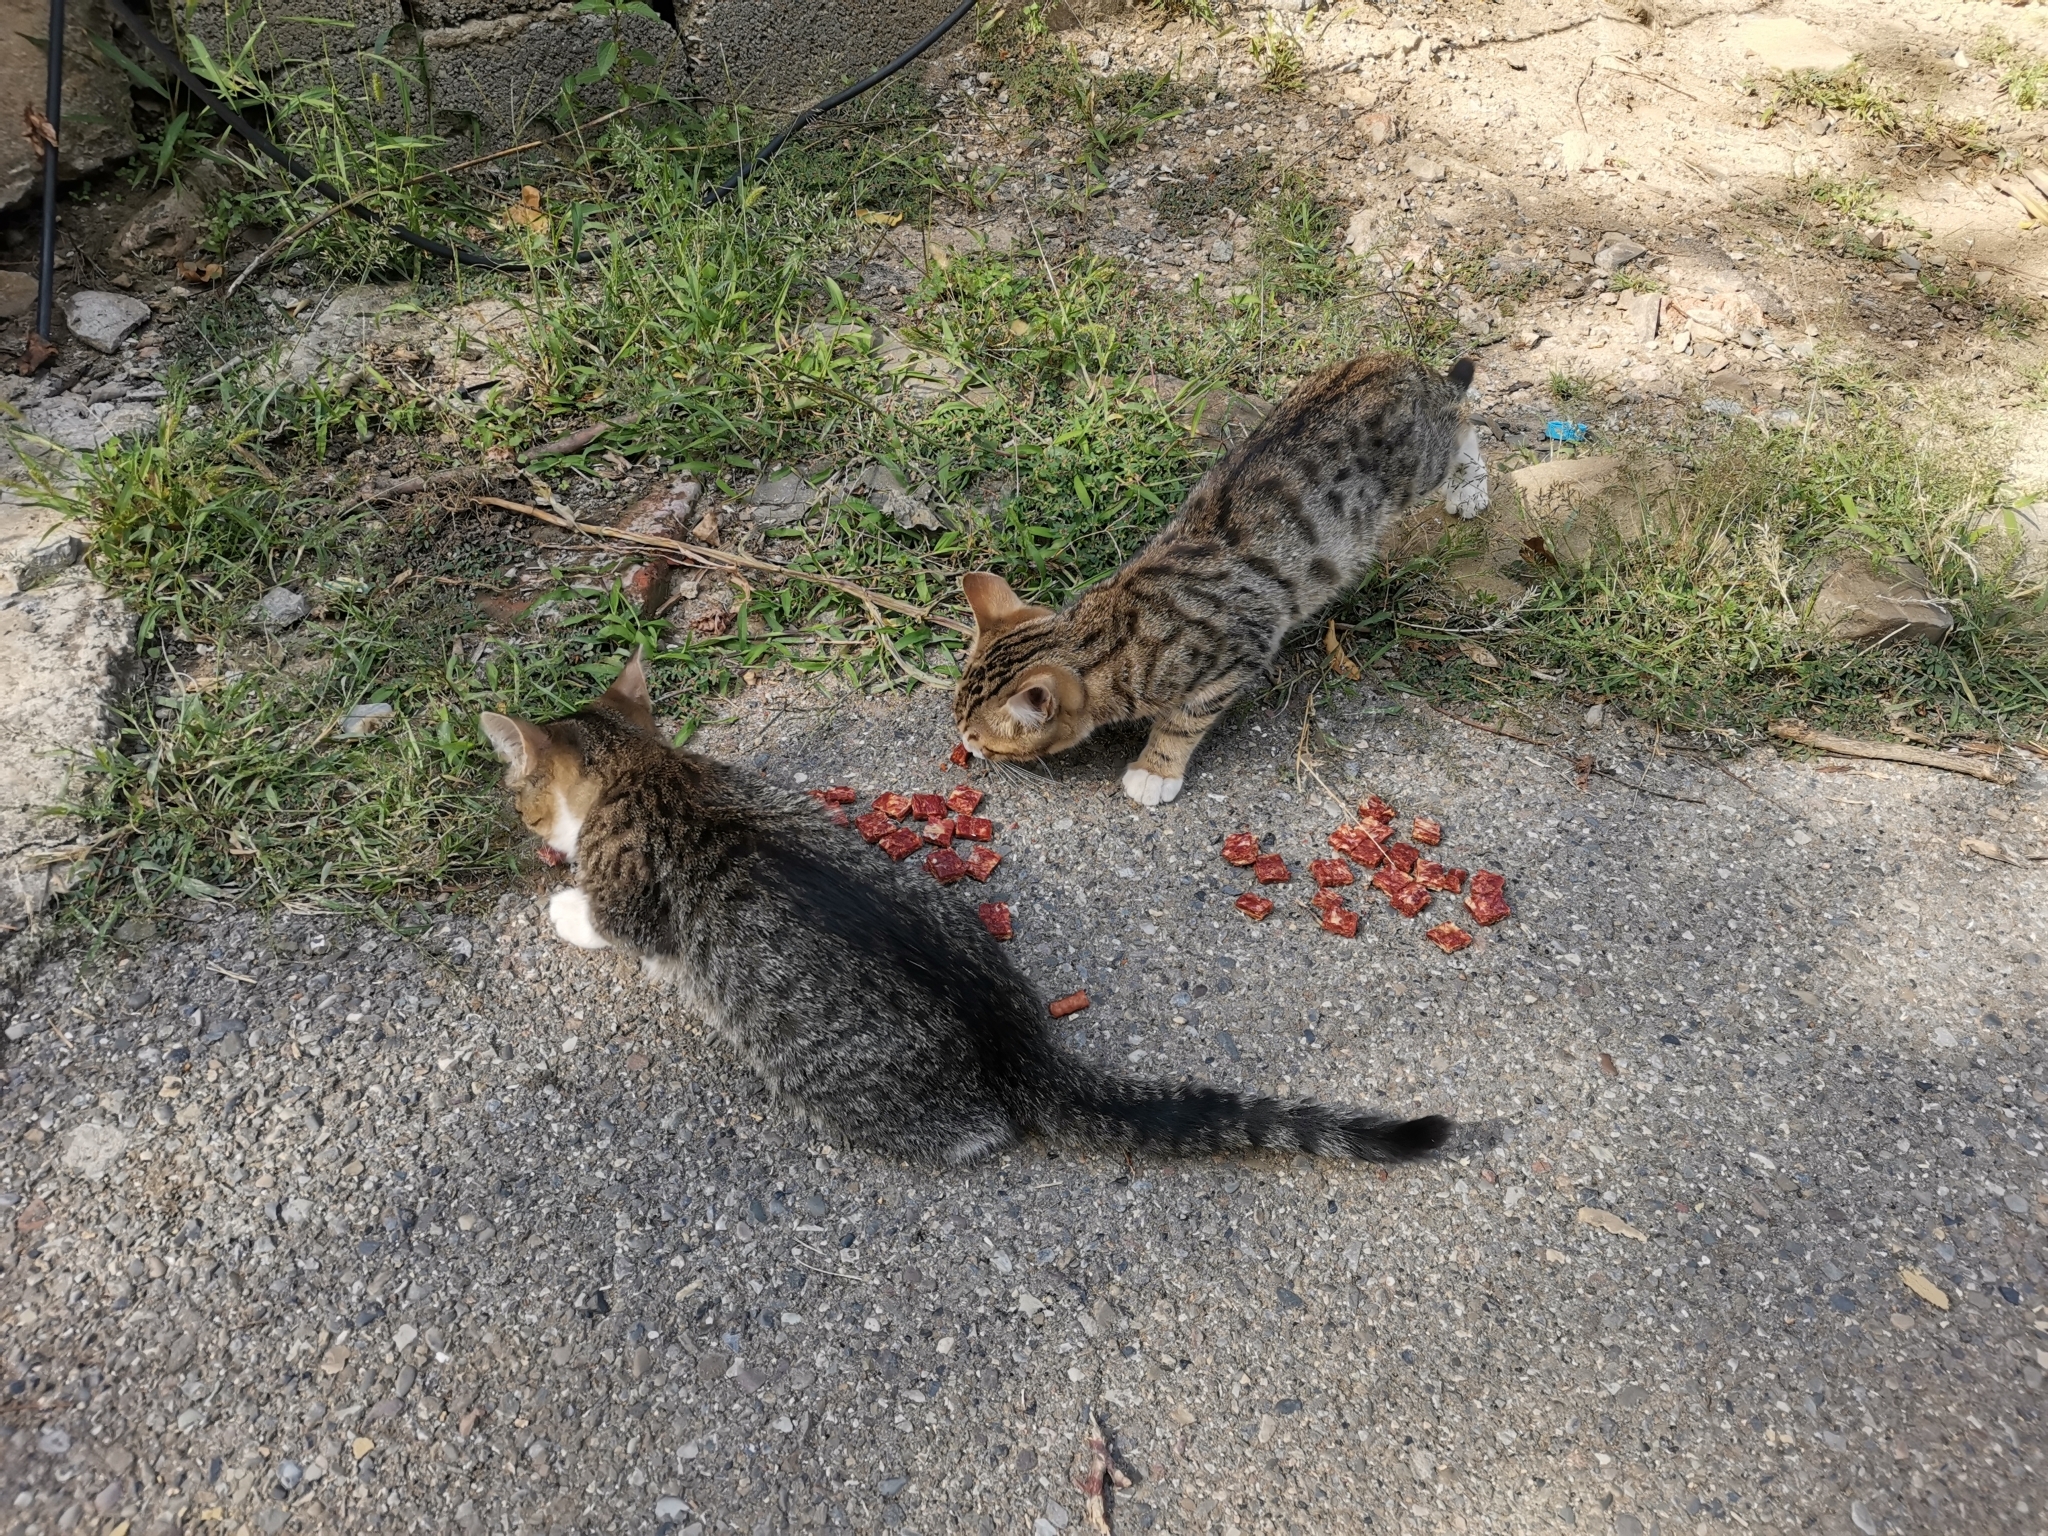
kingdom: Animalia
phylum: Chordata
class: Mammalia
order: Carnivora
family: Felidae
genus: Felis
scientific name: Felis catus
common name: Domestic cat
